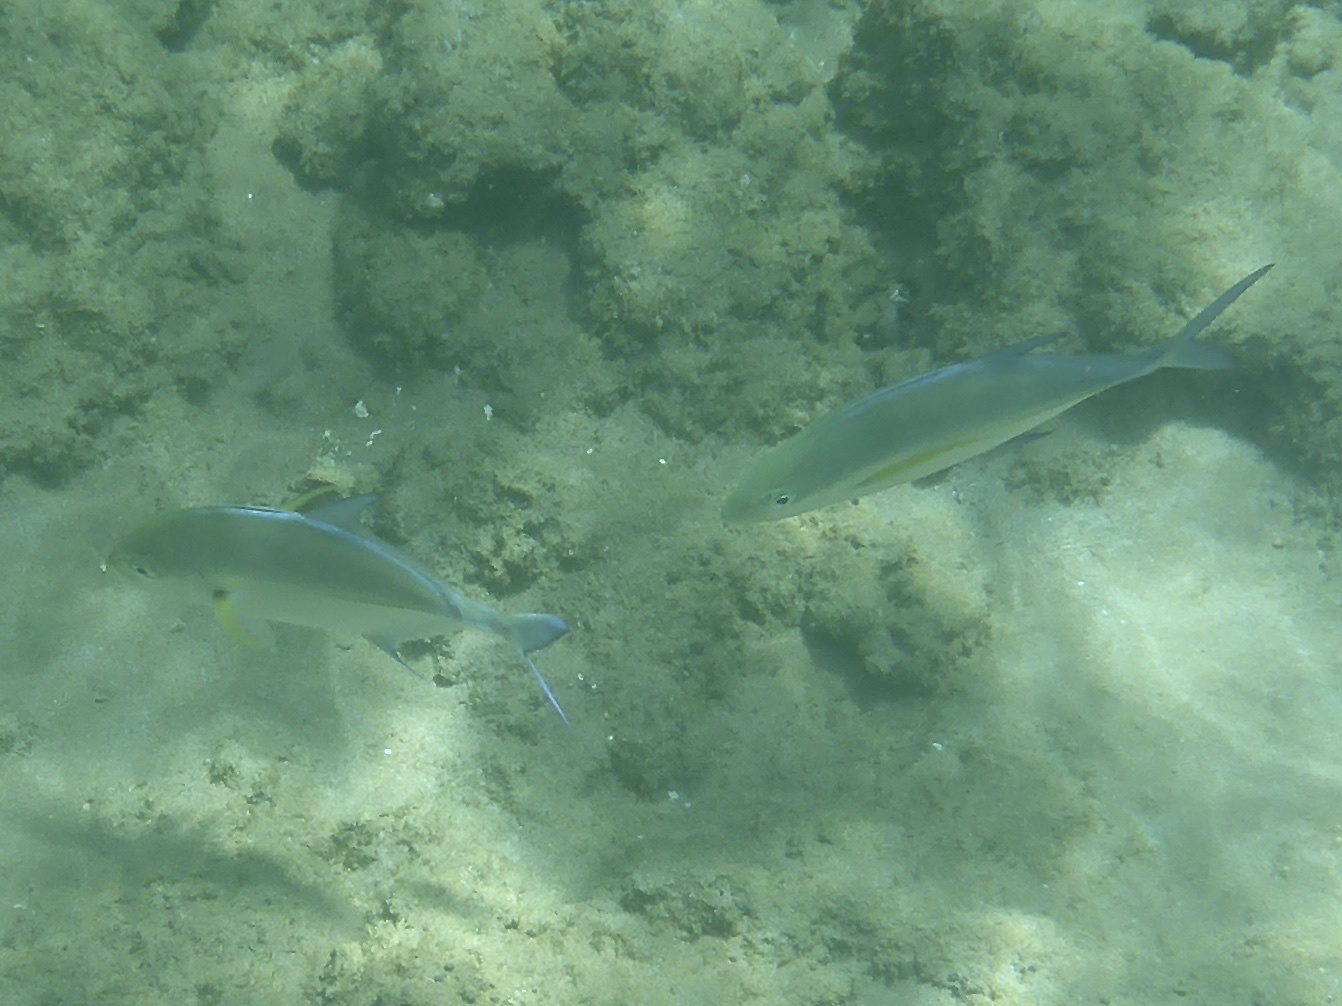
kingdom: Animalia
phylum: Chordata
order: Perciformes
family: Carangidae
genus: Caranx
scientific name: Caranx melampygus
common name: Bluefin trevally
